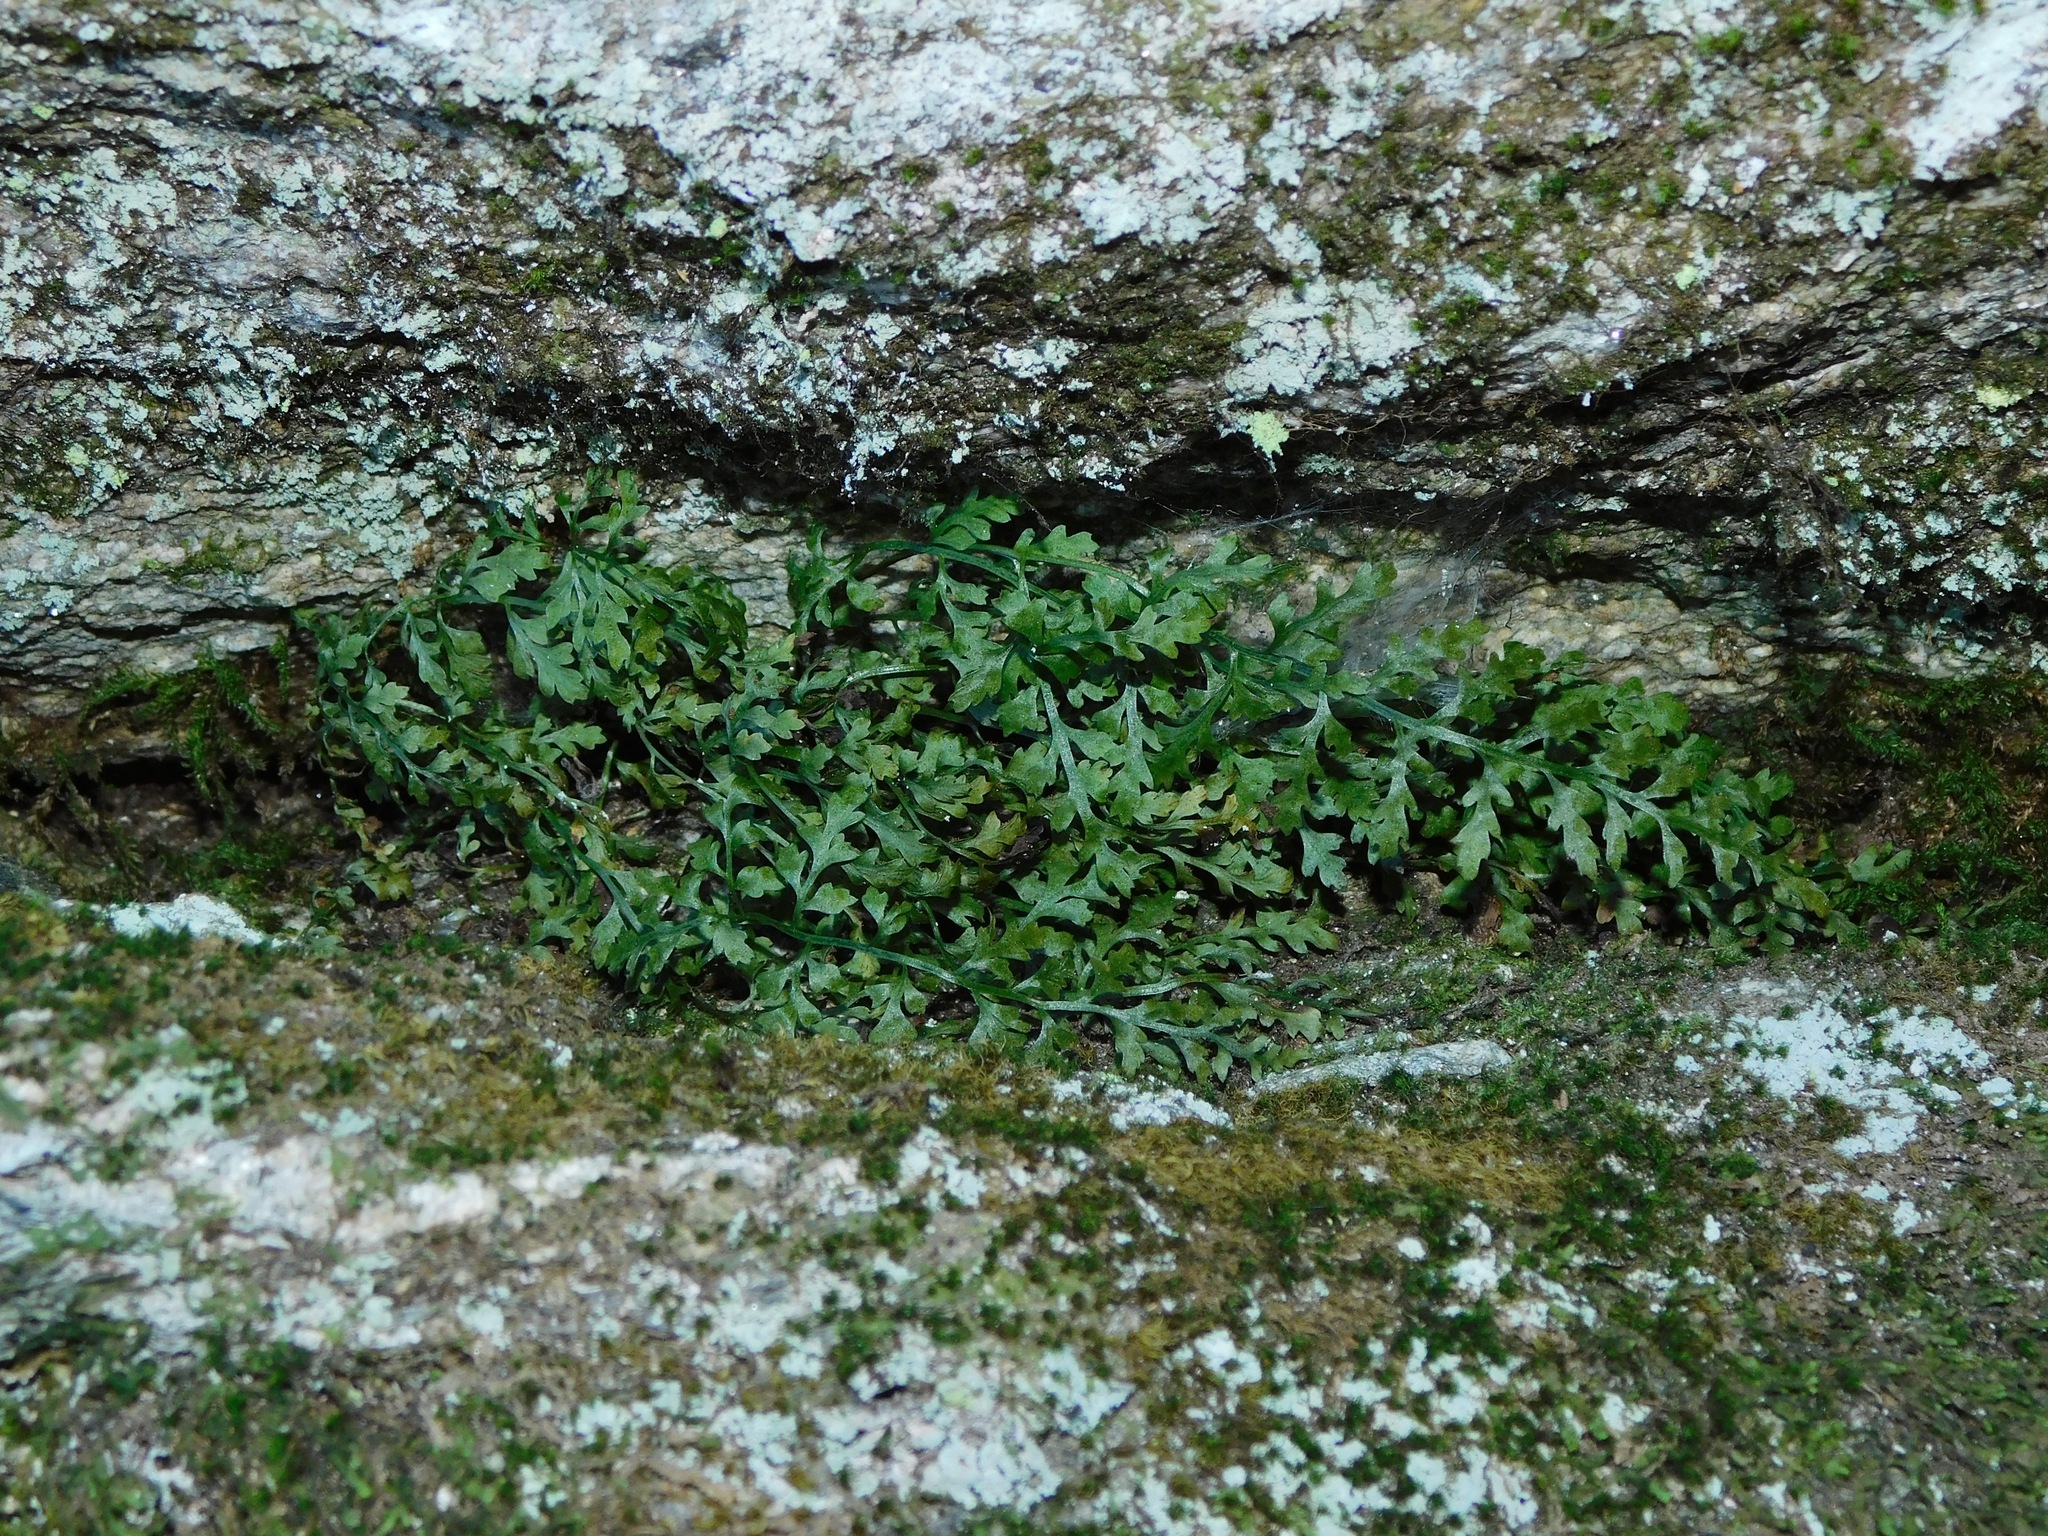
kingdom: Plantae
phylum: Tracheophyta
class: Polypodiopsida
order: Polypodiales
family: Aspleniaceae
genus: Asplenium
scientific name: Asplenium montanum
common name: Mountain spleenwort
